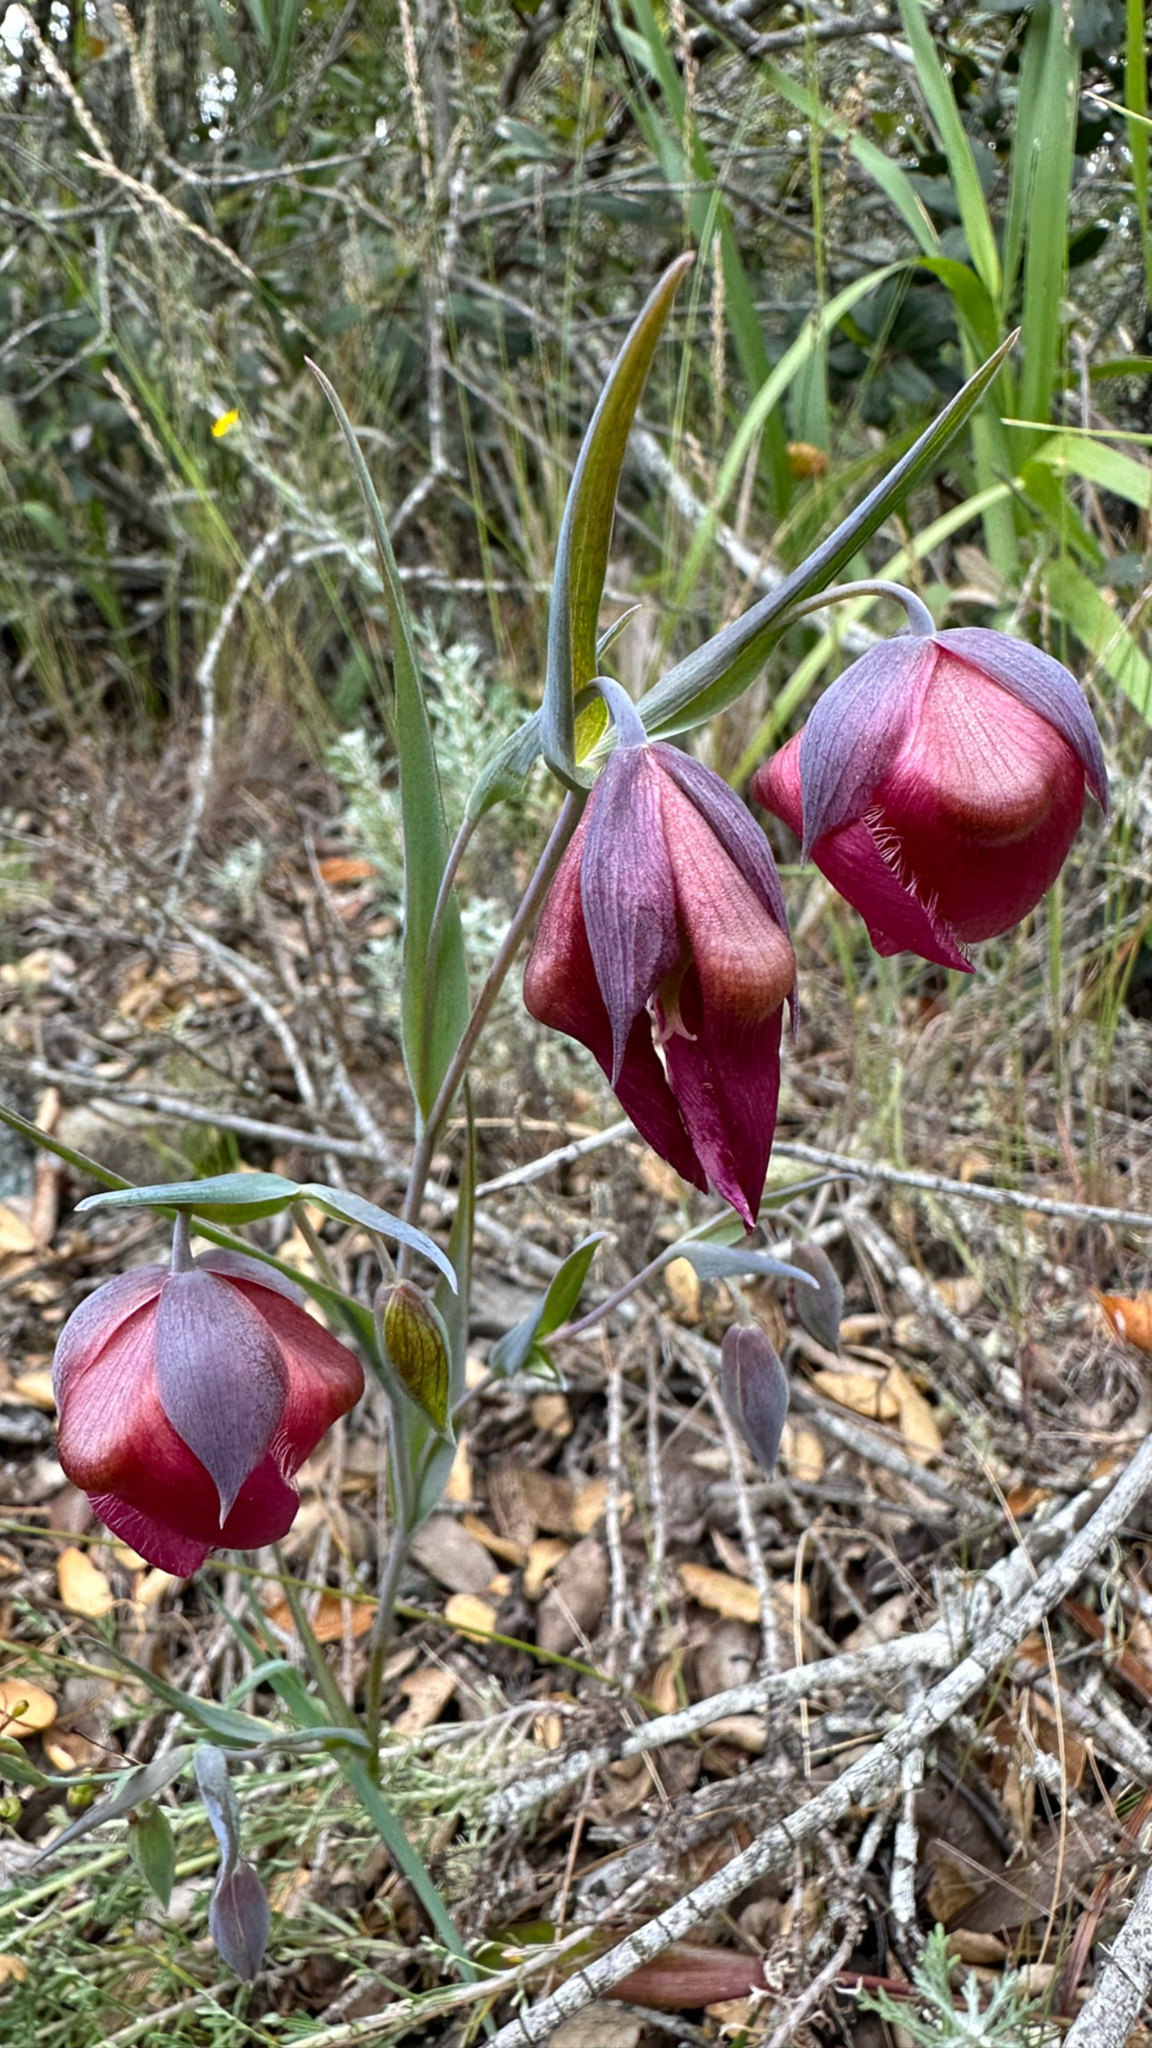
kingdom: Plantae
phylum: Tracheophyta
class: Liliopsida
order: Liliales
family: Liliaceae
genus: Calochortus
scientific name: Calochortus albus
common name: Fairy-lantern
